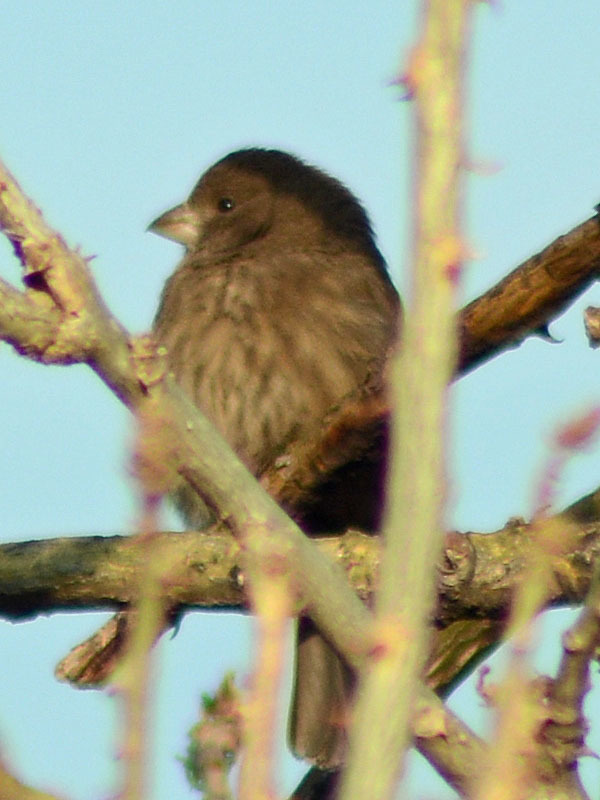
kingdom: Animalia
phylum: Chordata
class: Aves
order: Passeriformes
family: Fringillidae
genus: Haemorhous
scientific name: Haemorhous mexicanus
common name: House finch
